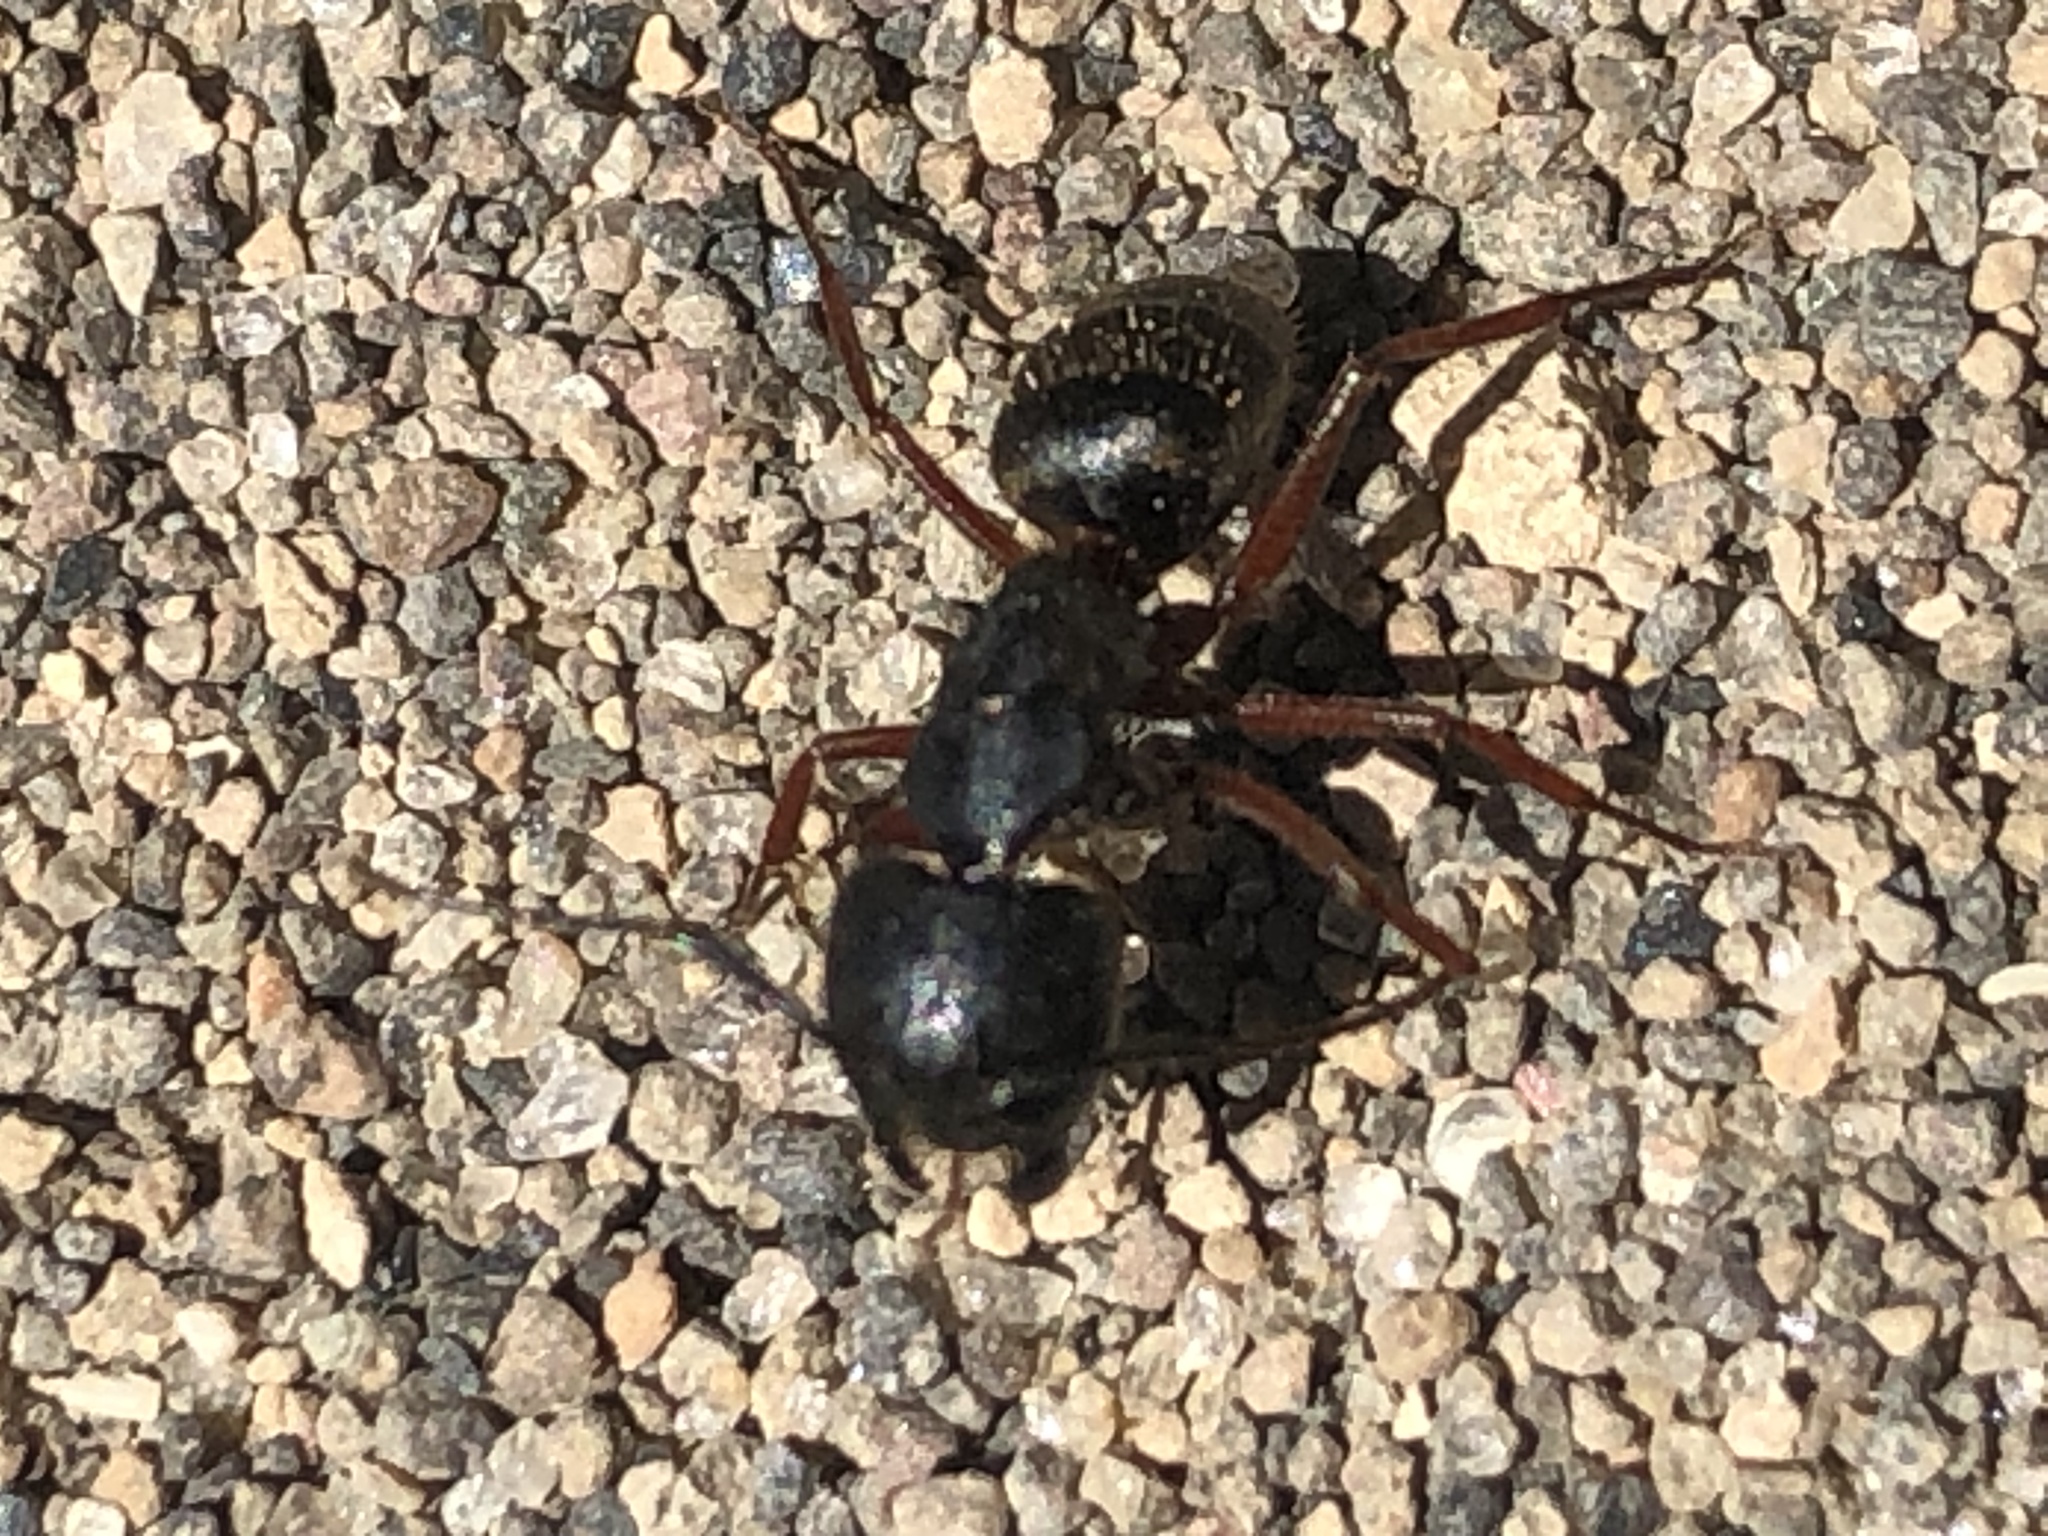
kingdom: Animalia
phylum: Arthropoda
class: Insecta
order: Hymenoptera
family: Formicidae
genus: Camponotus
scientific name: Camponotus modoc
